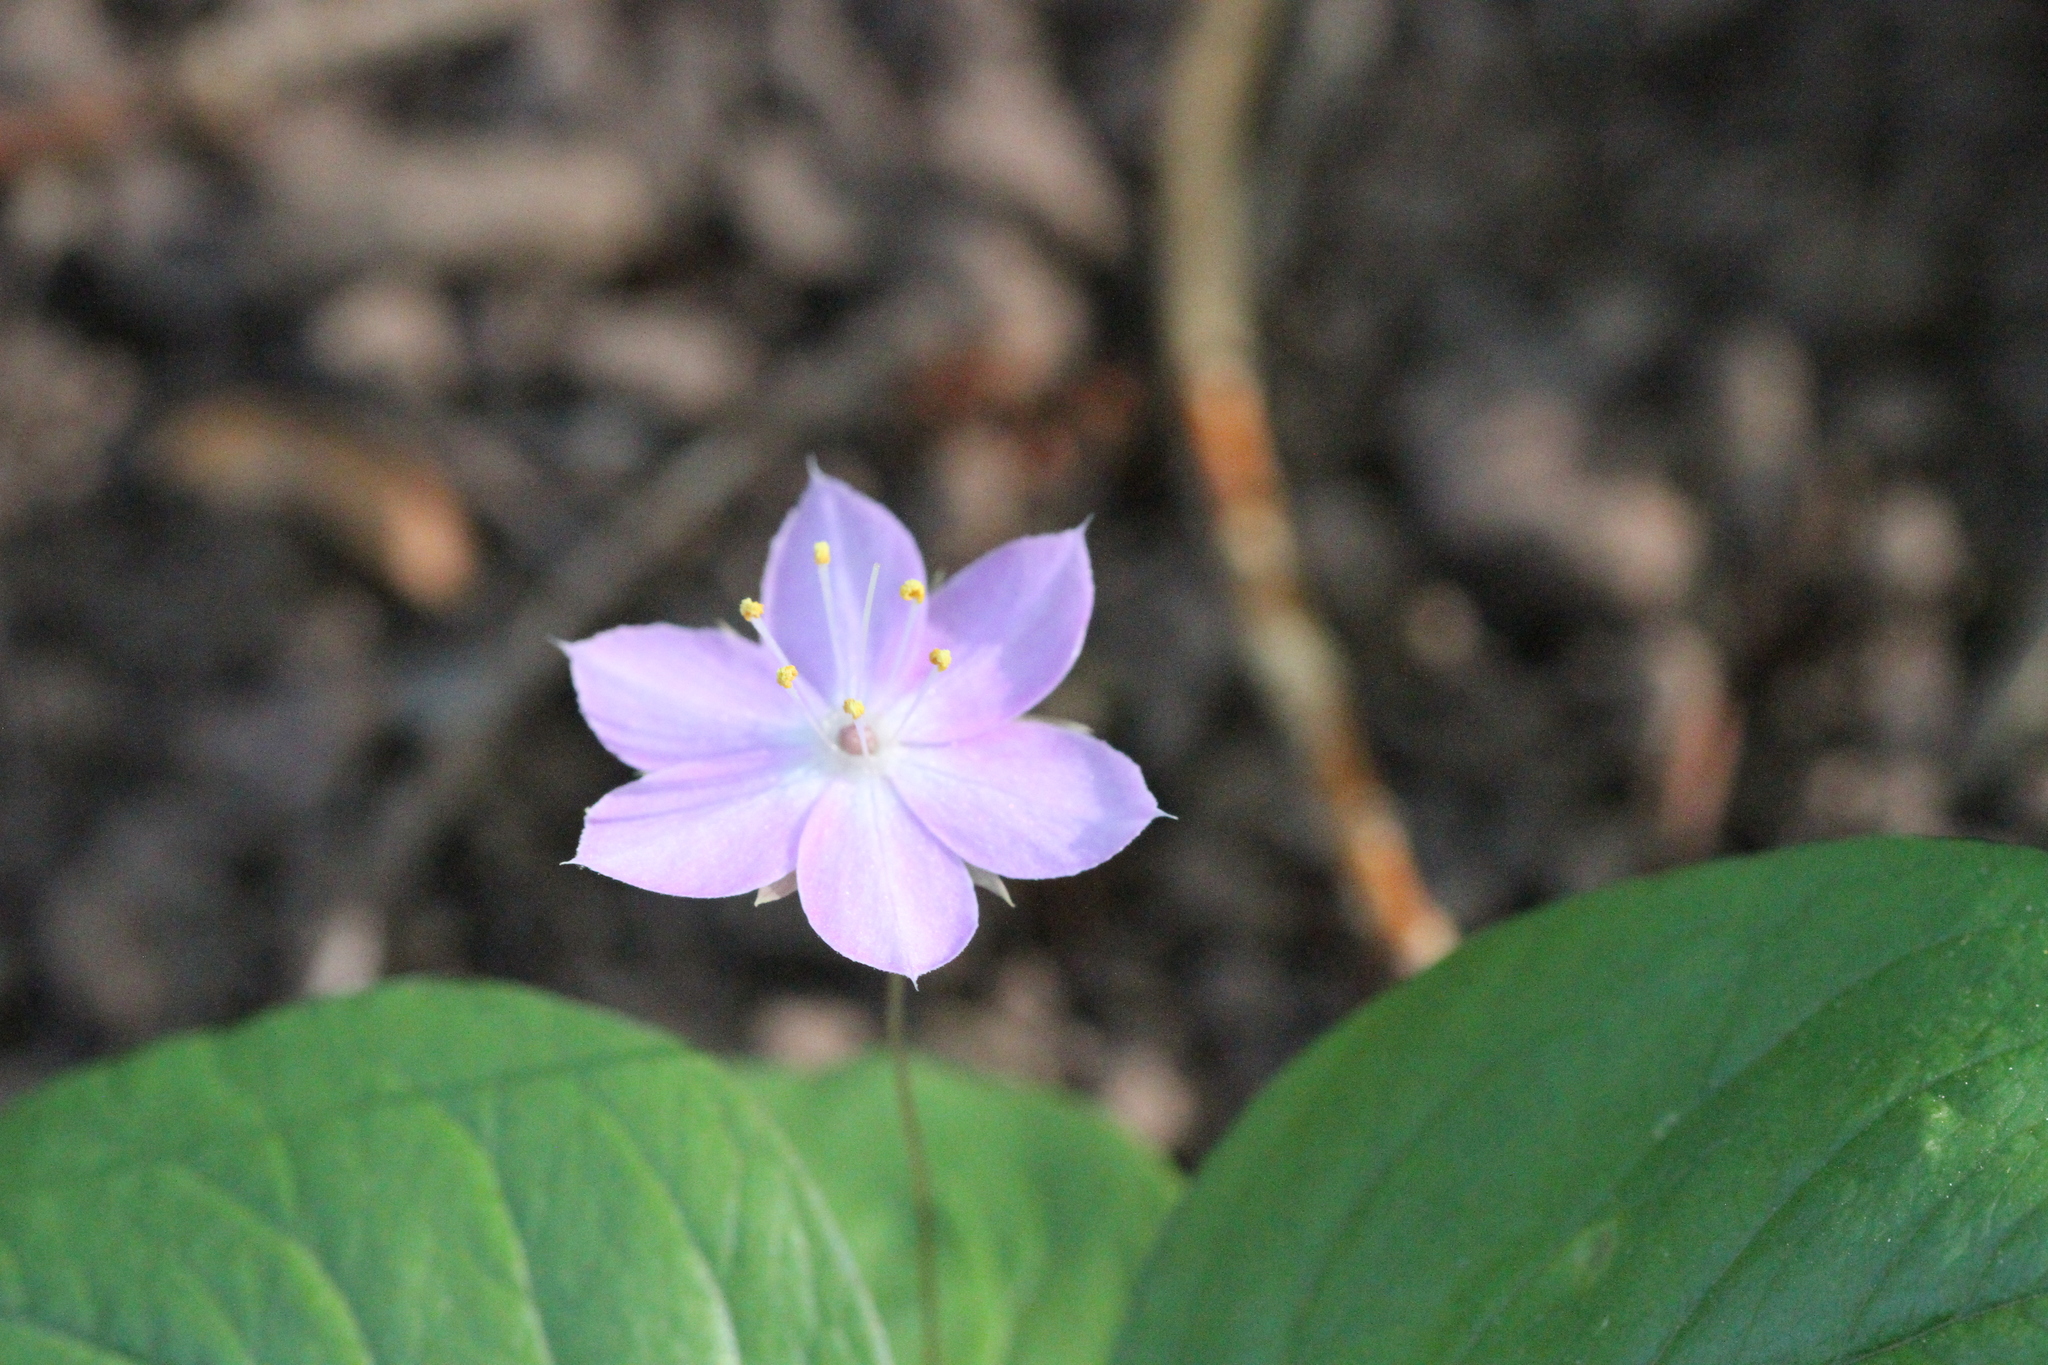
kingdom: Plantae
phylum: Tracheophyta
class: Magnoliopsida
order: Ericales
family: Primulaceae
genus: Lysimachia
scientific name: Lysimachia latifolia
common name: Pacific starflower
